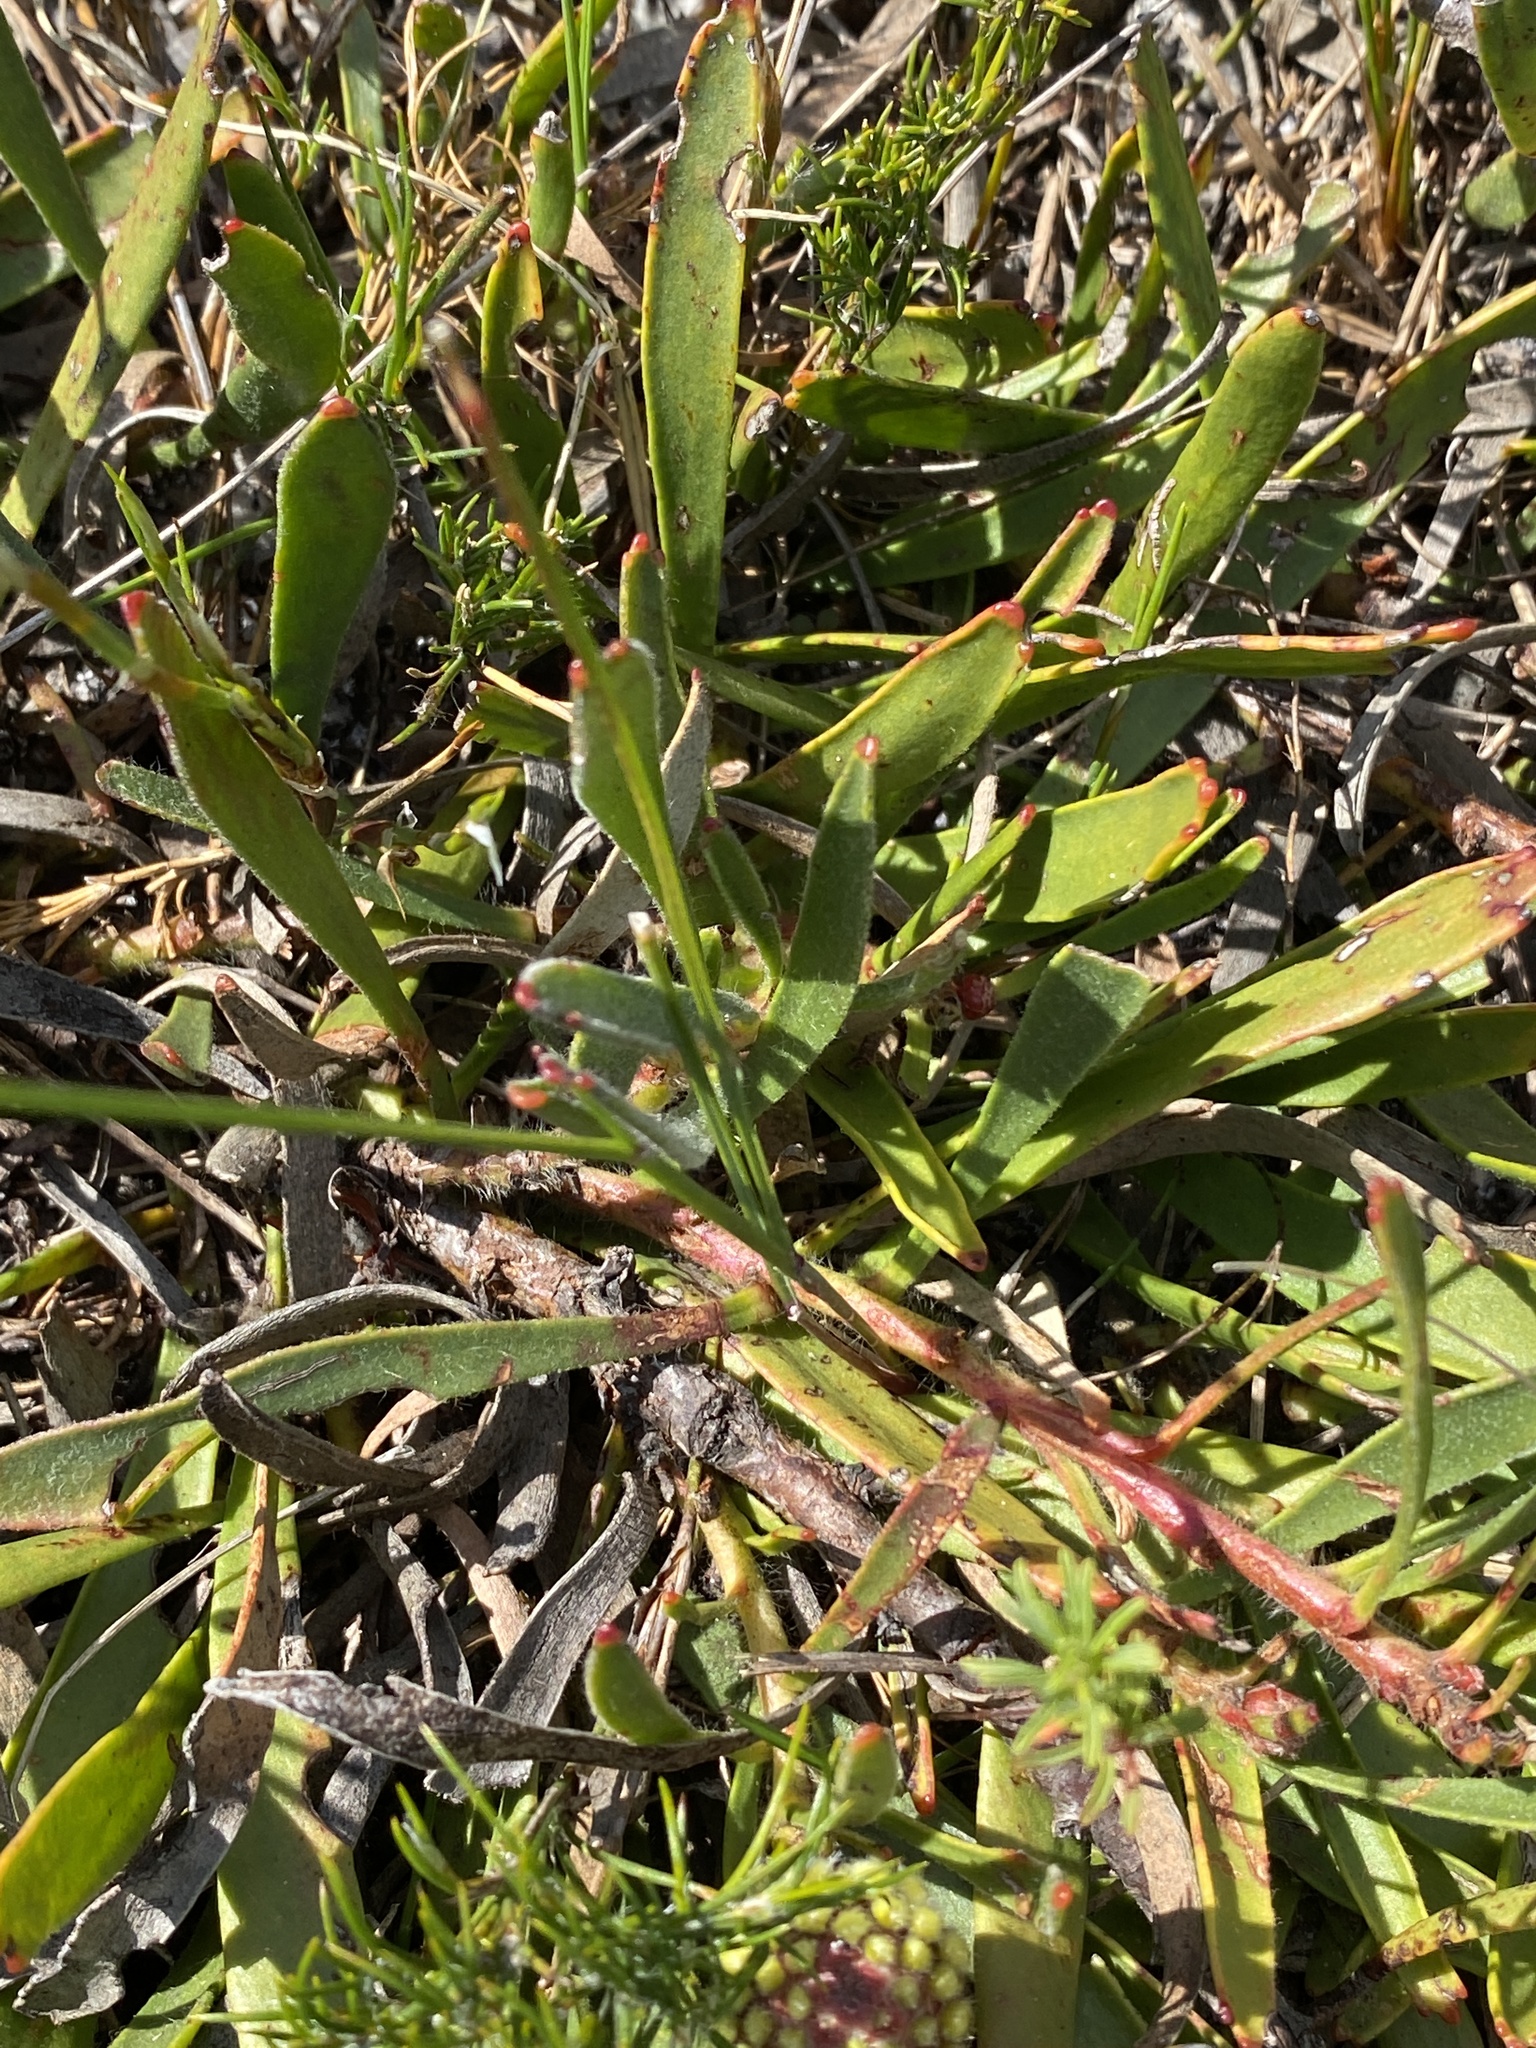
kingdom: Plantae
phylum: Tracheophyta
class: Magnoliopsida
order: Proteales
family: Proteaceae
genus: Leucospermum
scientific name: Leucospermum hypophyllocarpodendron
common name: Snakestem pincushion
